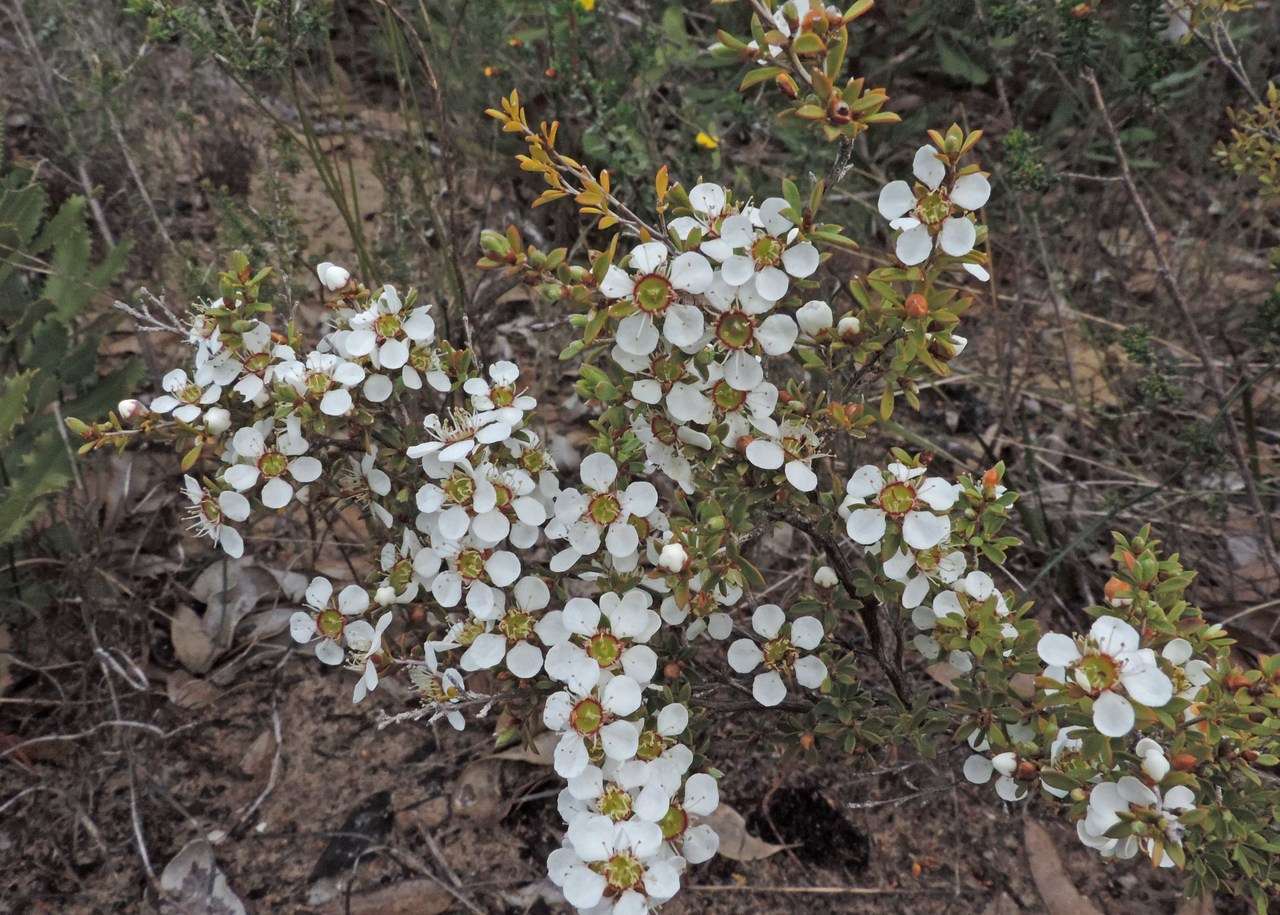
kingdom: Plantae
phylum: Tracheophyta
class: Magnoliopsida
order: Myrtales
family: Myrtaceae
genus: Leptospermum
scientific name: Leptospermum myrsinoides
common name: Heath teatree
